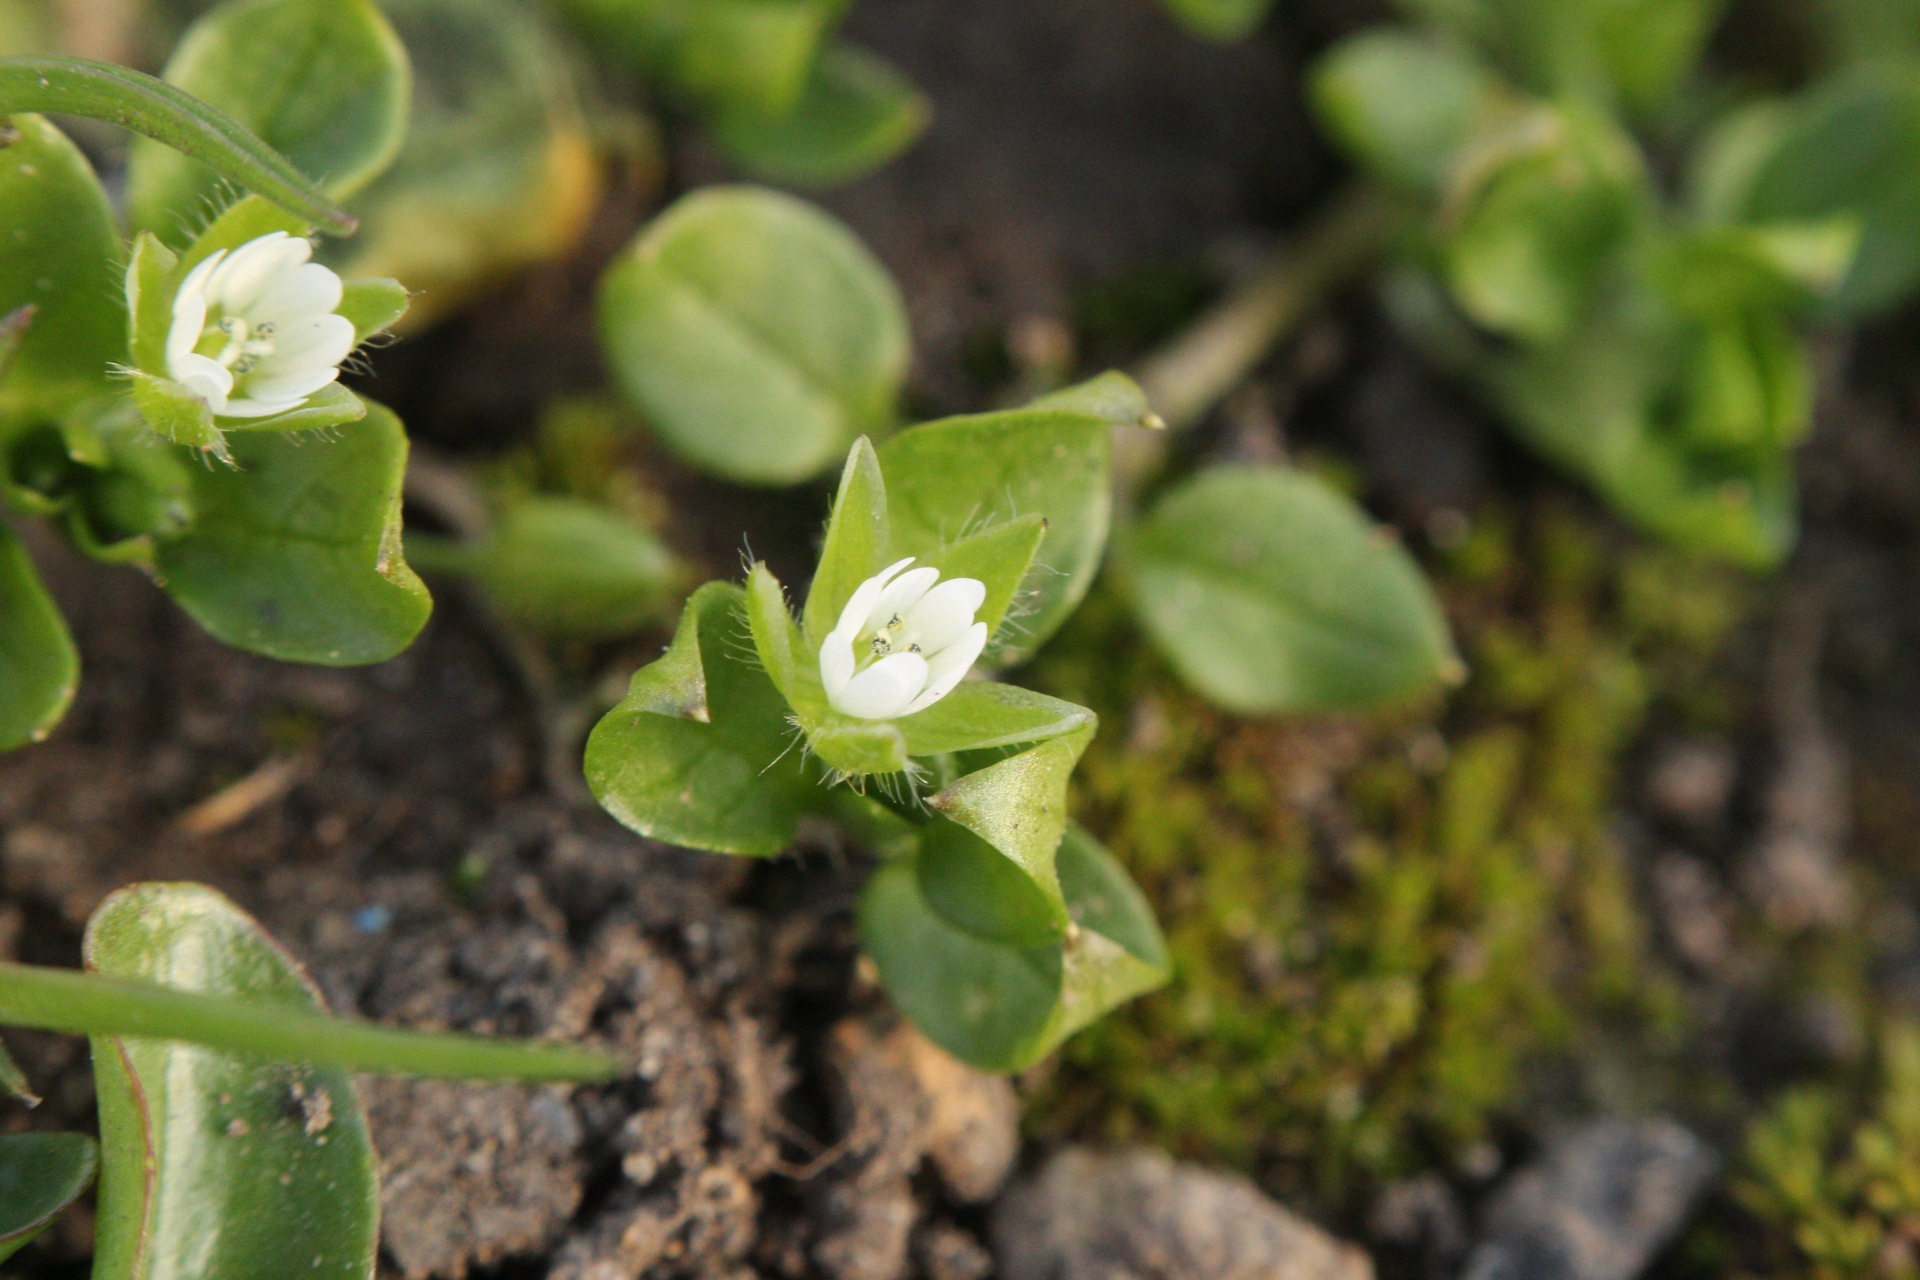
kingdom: Plantae
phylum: Tracheophyta
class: Magnoliopsida
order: Caryophyllales
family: Caryophyllaceae
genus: Stellaria
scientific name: Stellaria media
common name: Common chickweed
